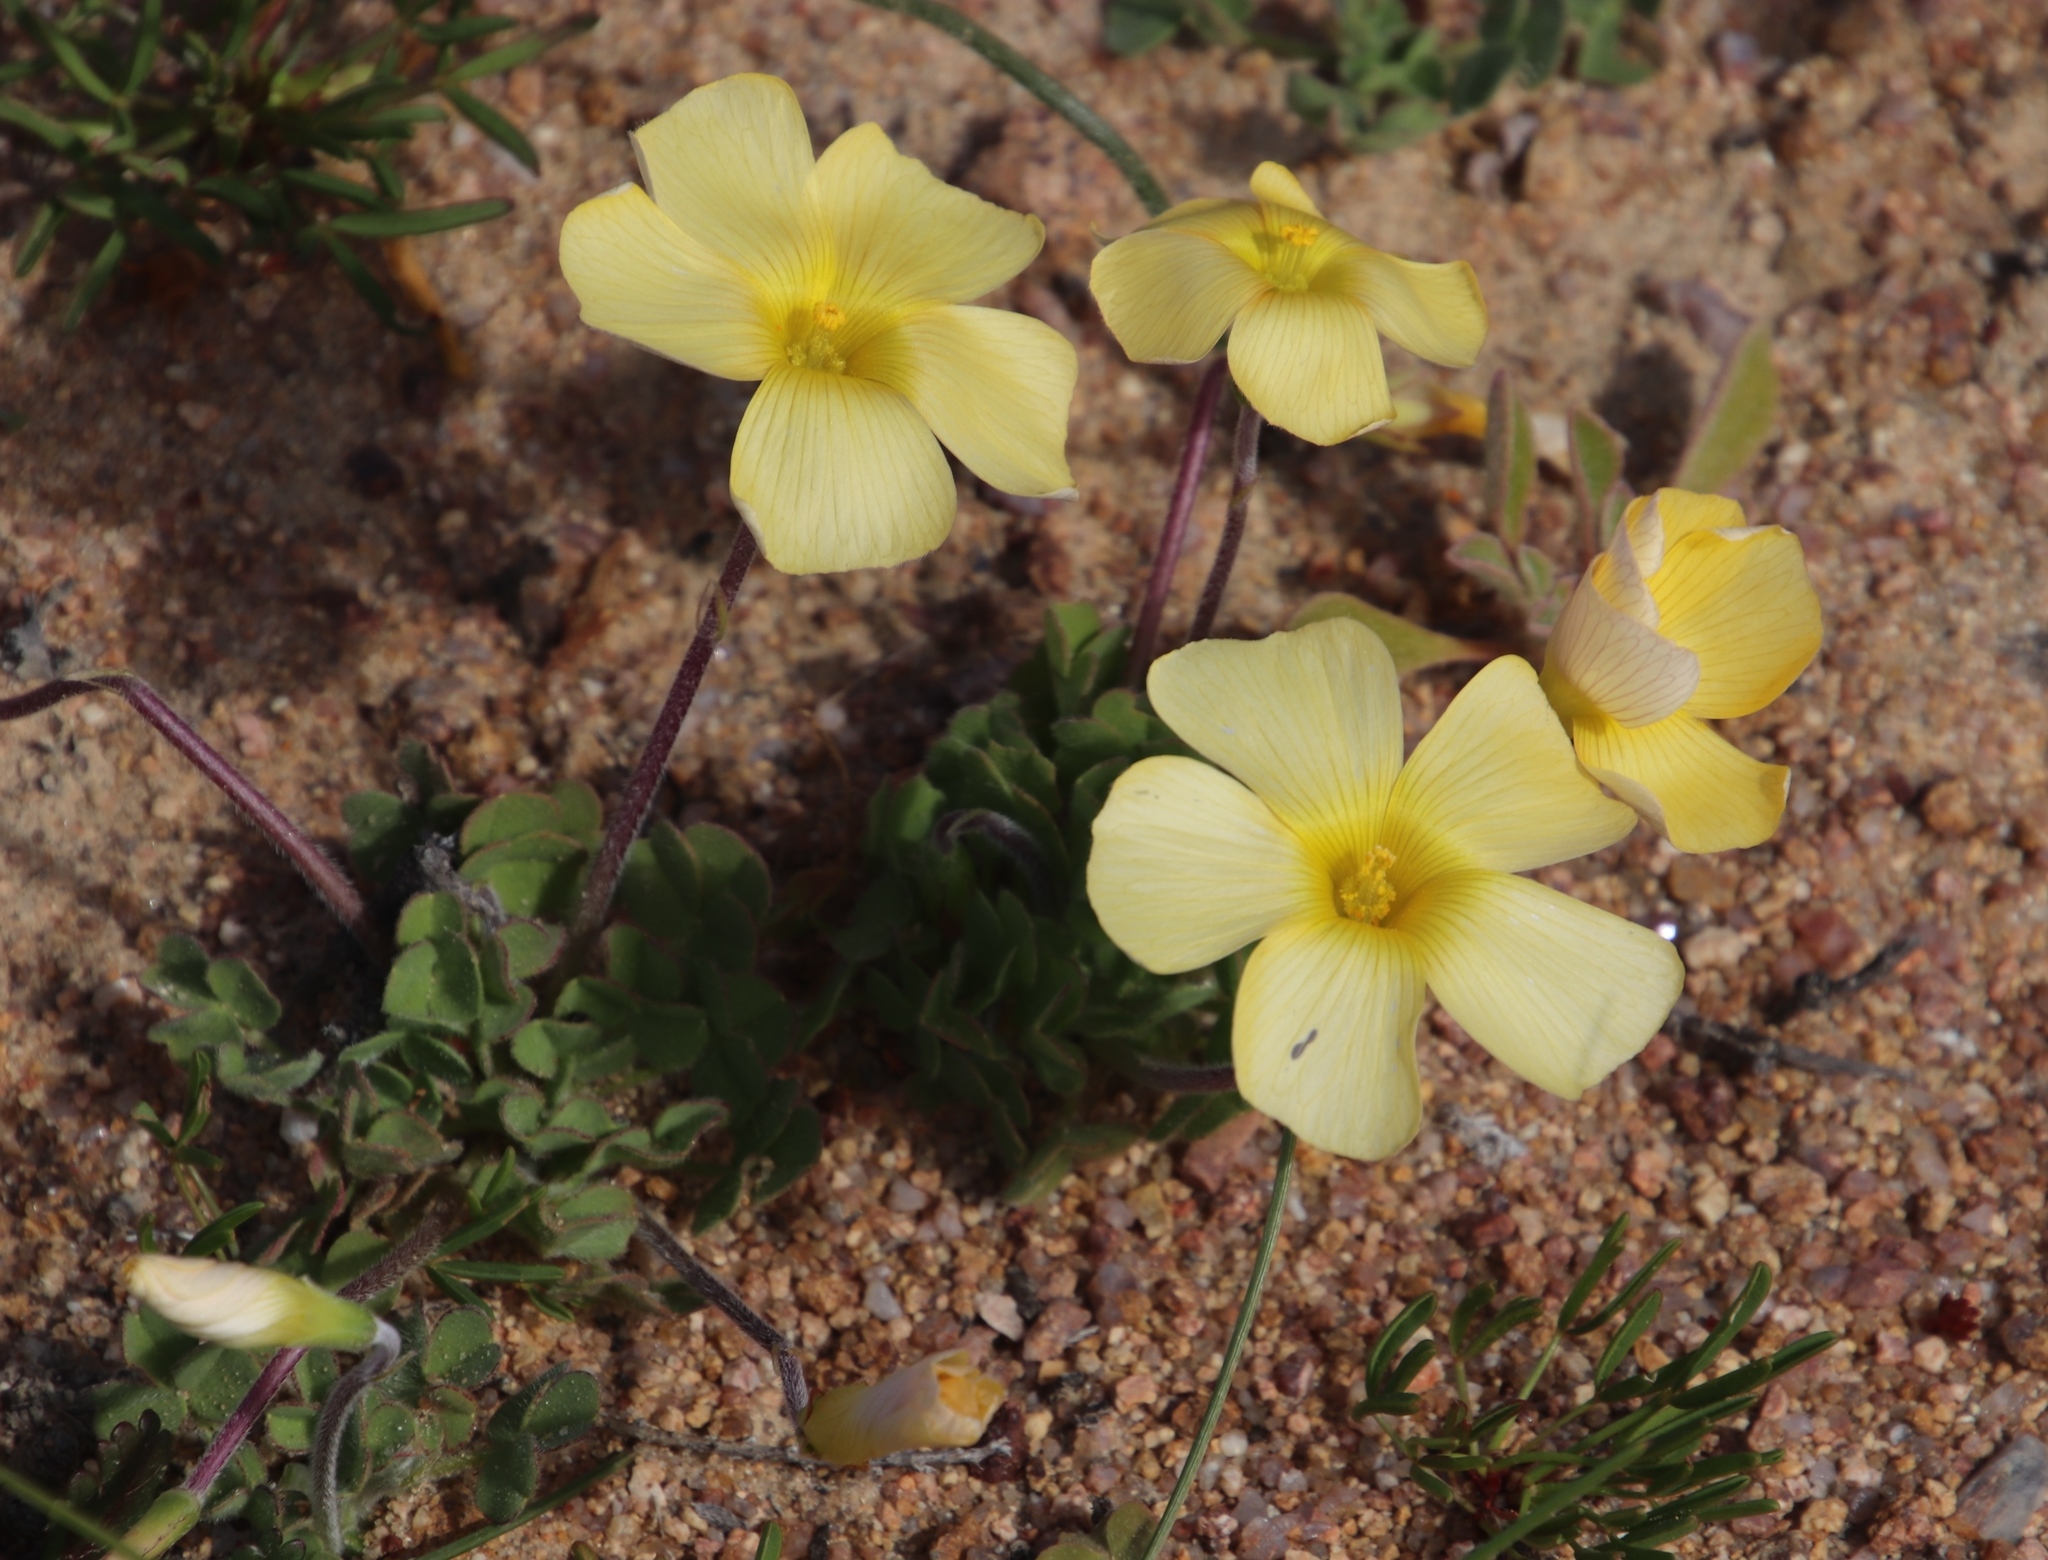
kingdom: Plantae
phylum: Tracheophyta
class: Magnoliopsida
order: Oxalidales
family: Oxalidaceae
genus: Oxalis
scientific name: Oxalis obtusa
